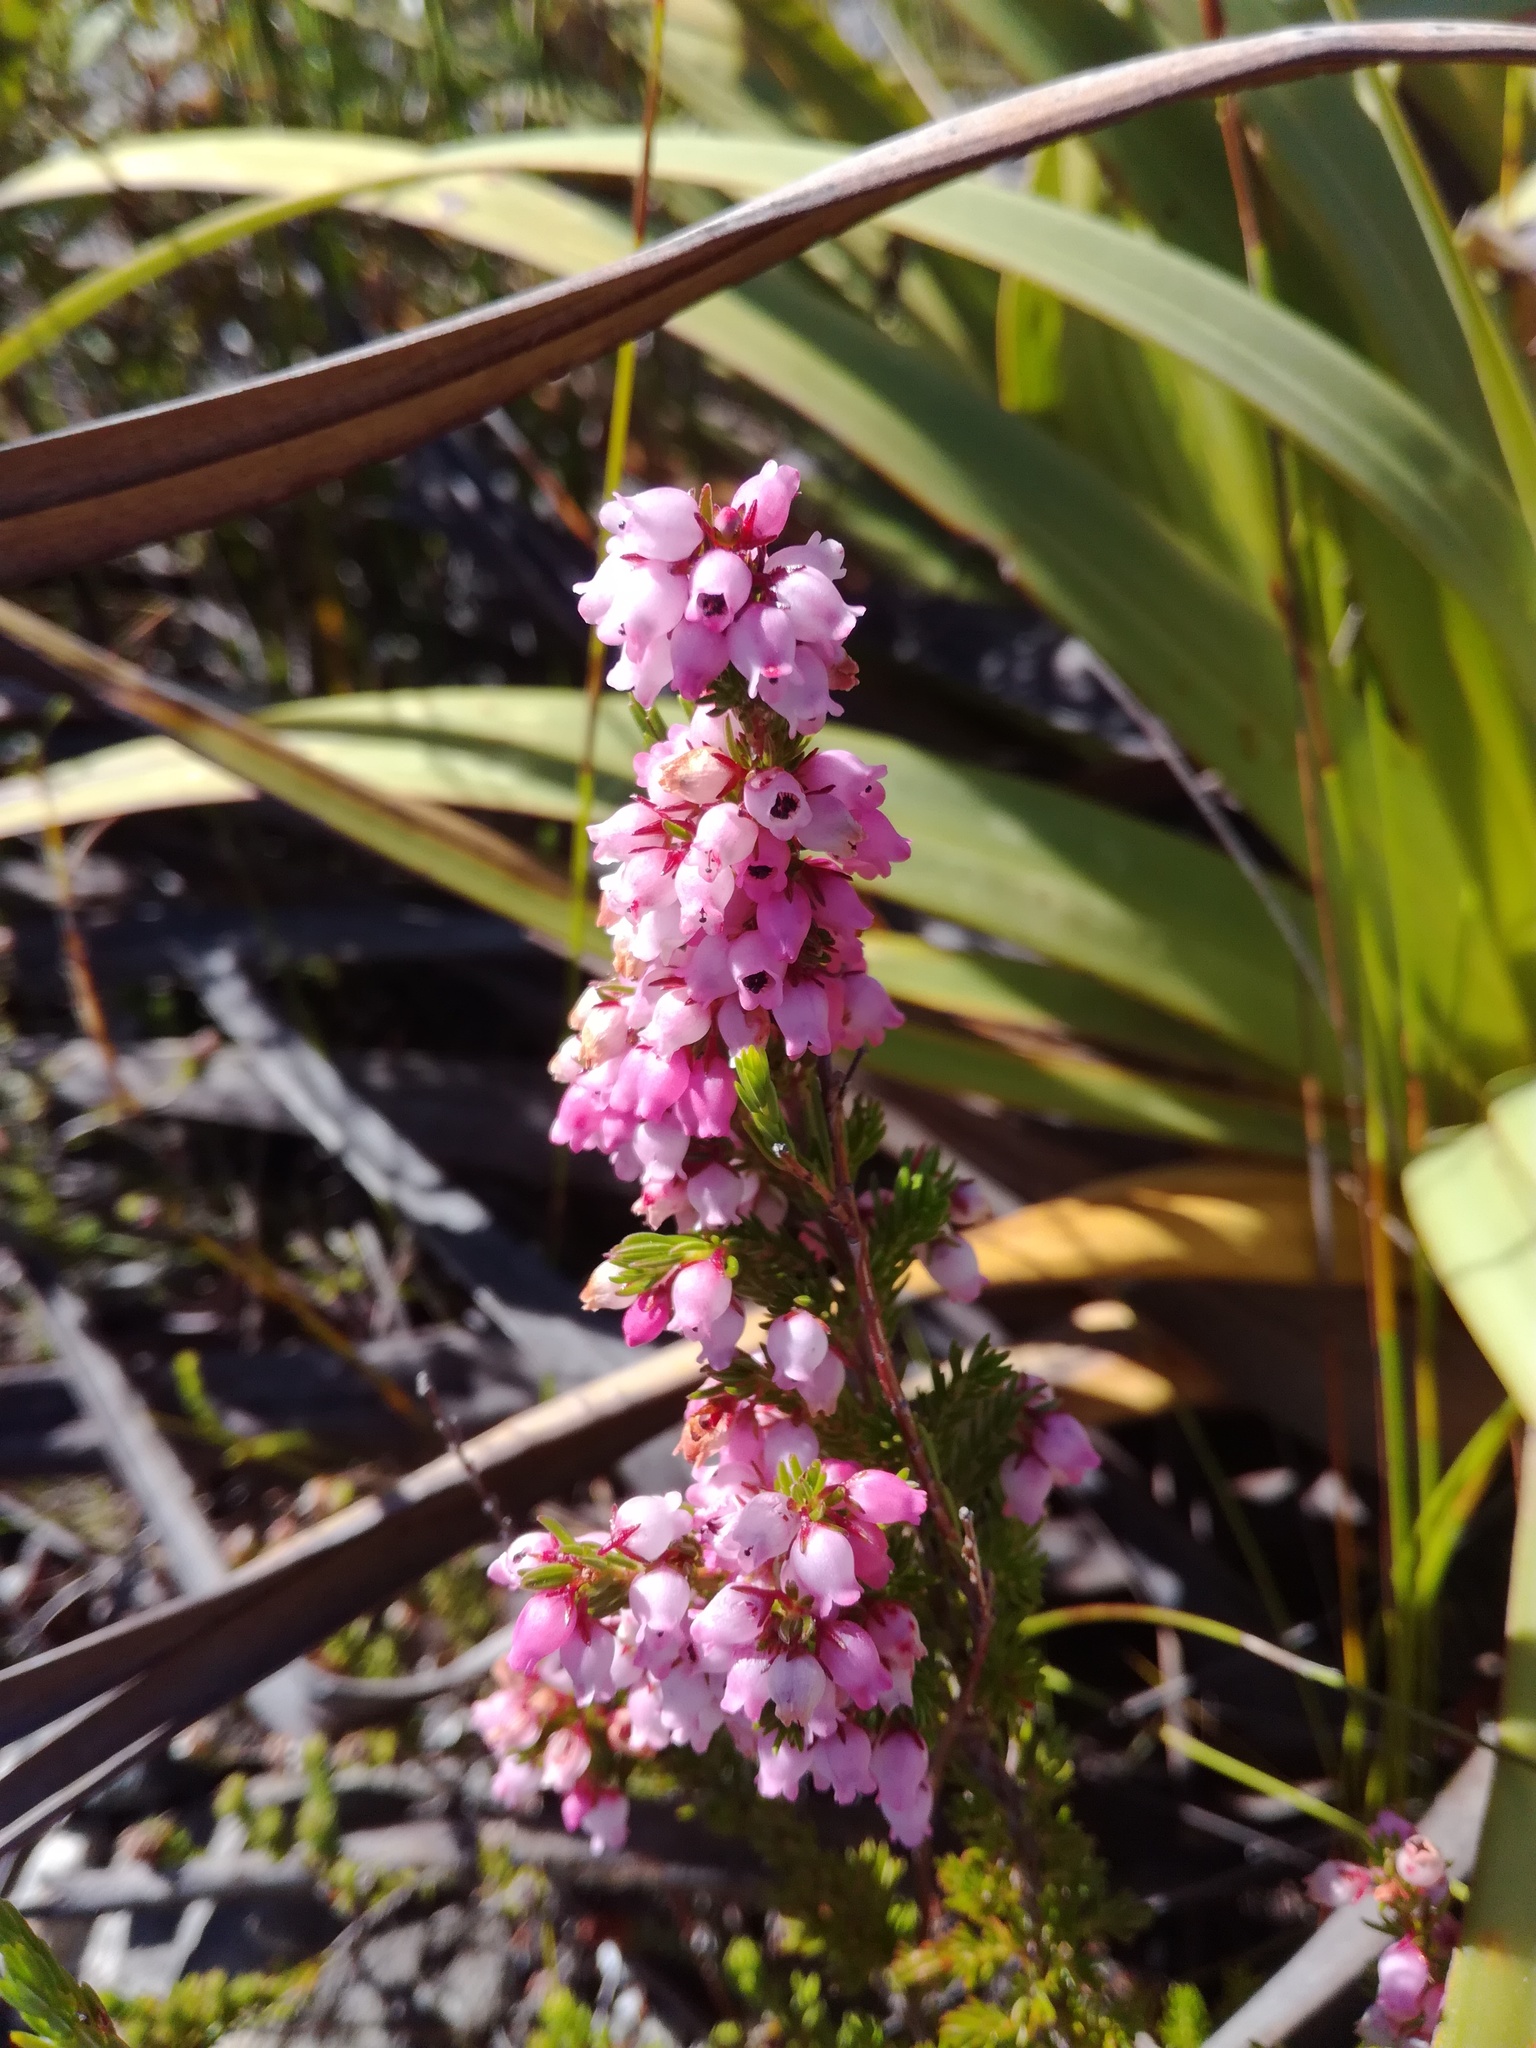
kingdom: Plantae
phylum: Tracheophyta
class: Magnoliopsida
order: Ericales
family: Ericaceae
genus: Erica
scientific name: Erica tenella
